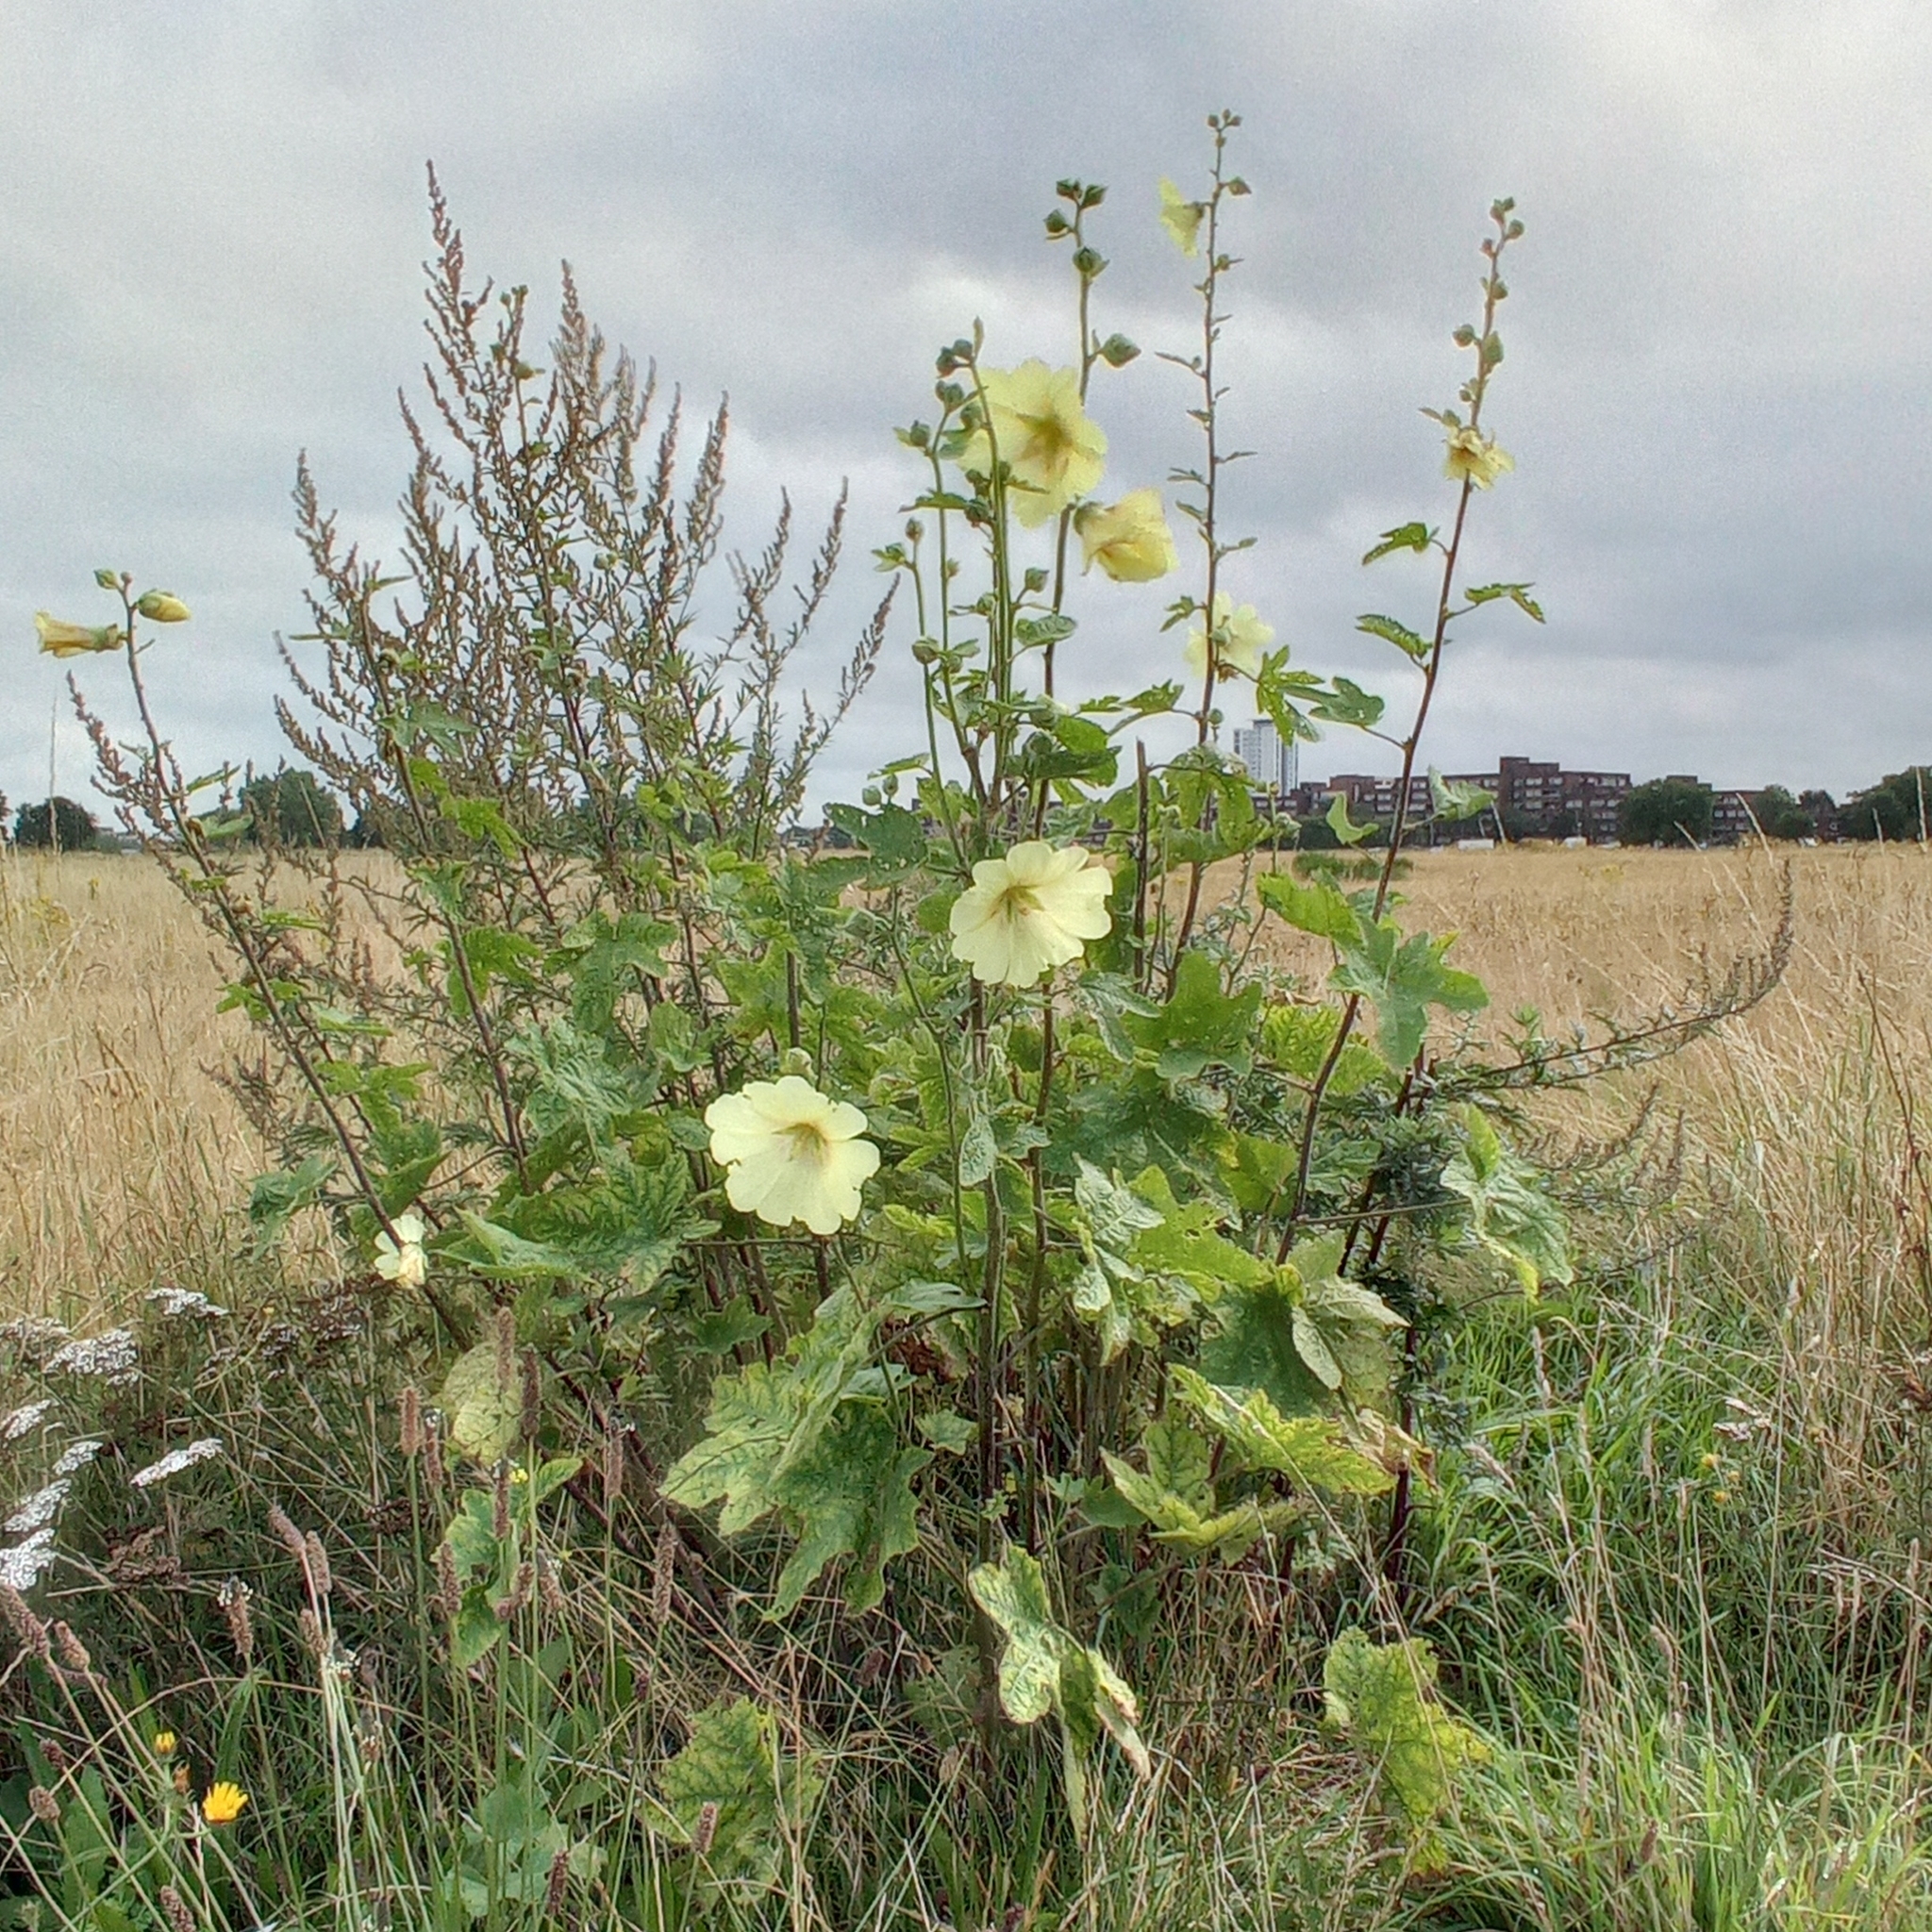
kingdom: Plantae
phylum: Tracheophyta
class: Magnoliopsida
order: Malvales
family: Malvaceae
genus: Alcea
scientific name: Alcea rosea
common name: Hollyhock
